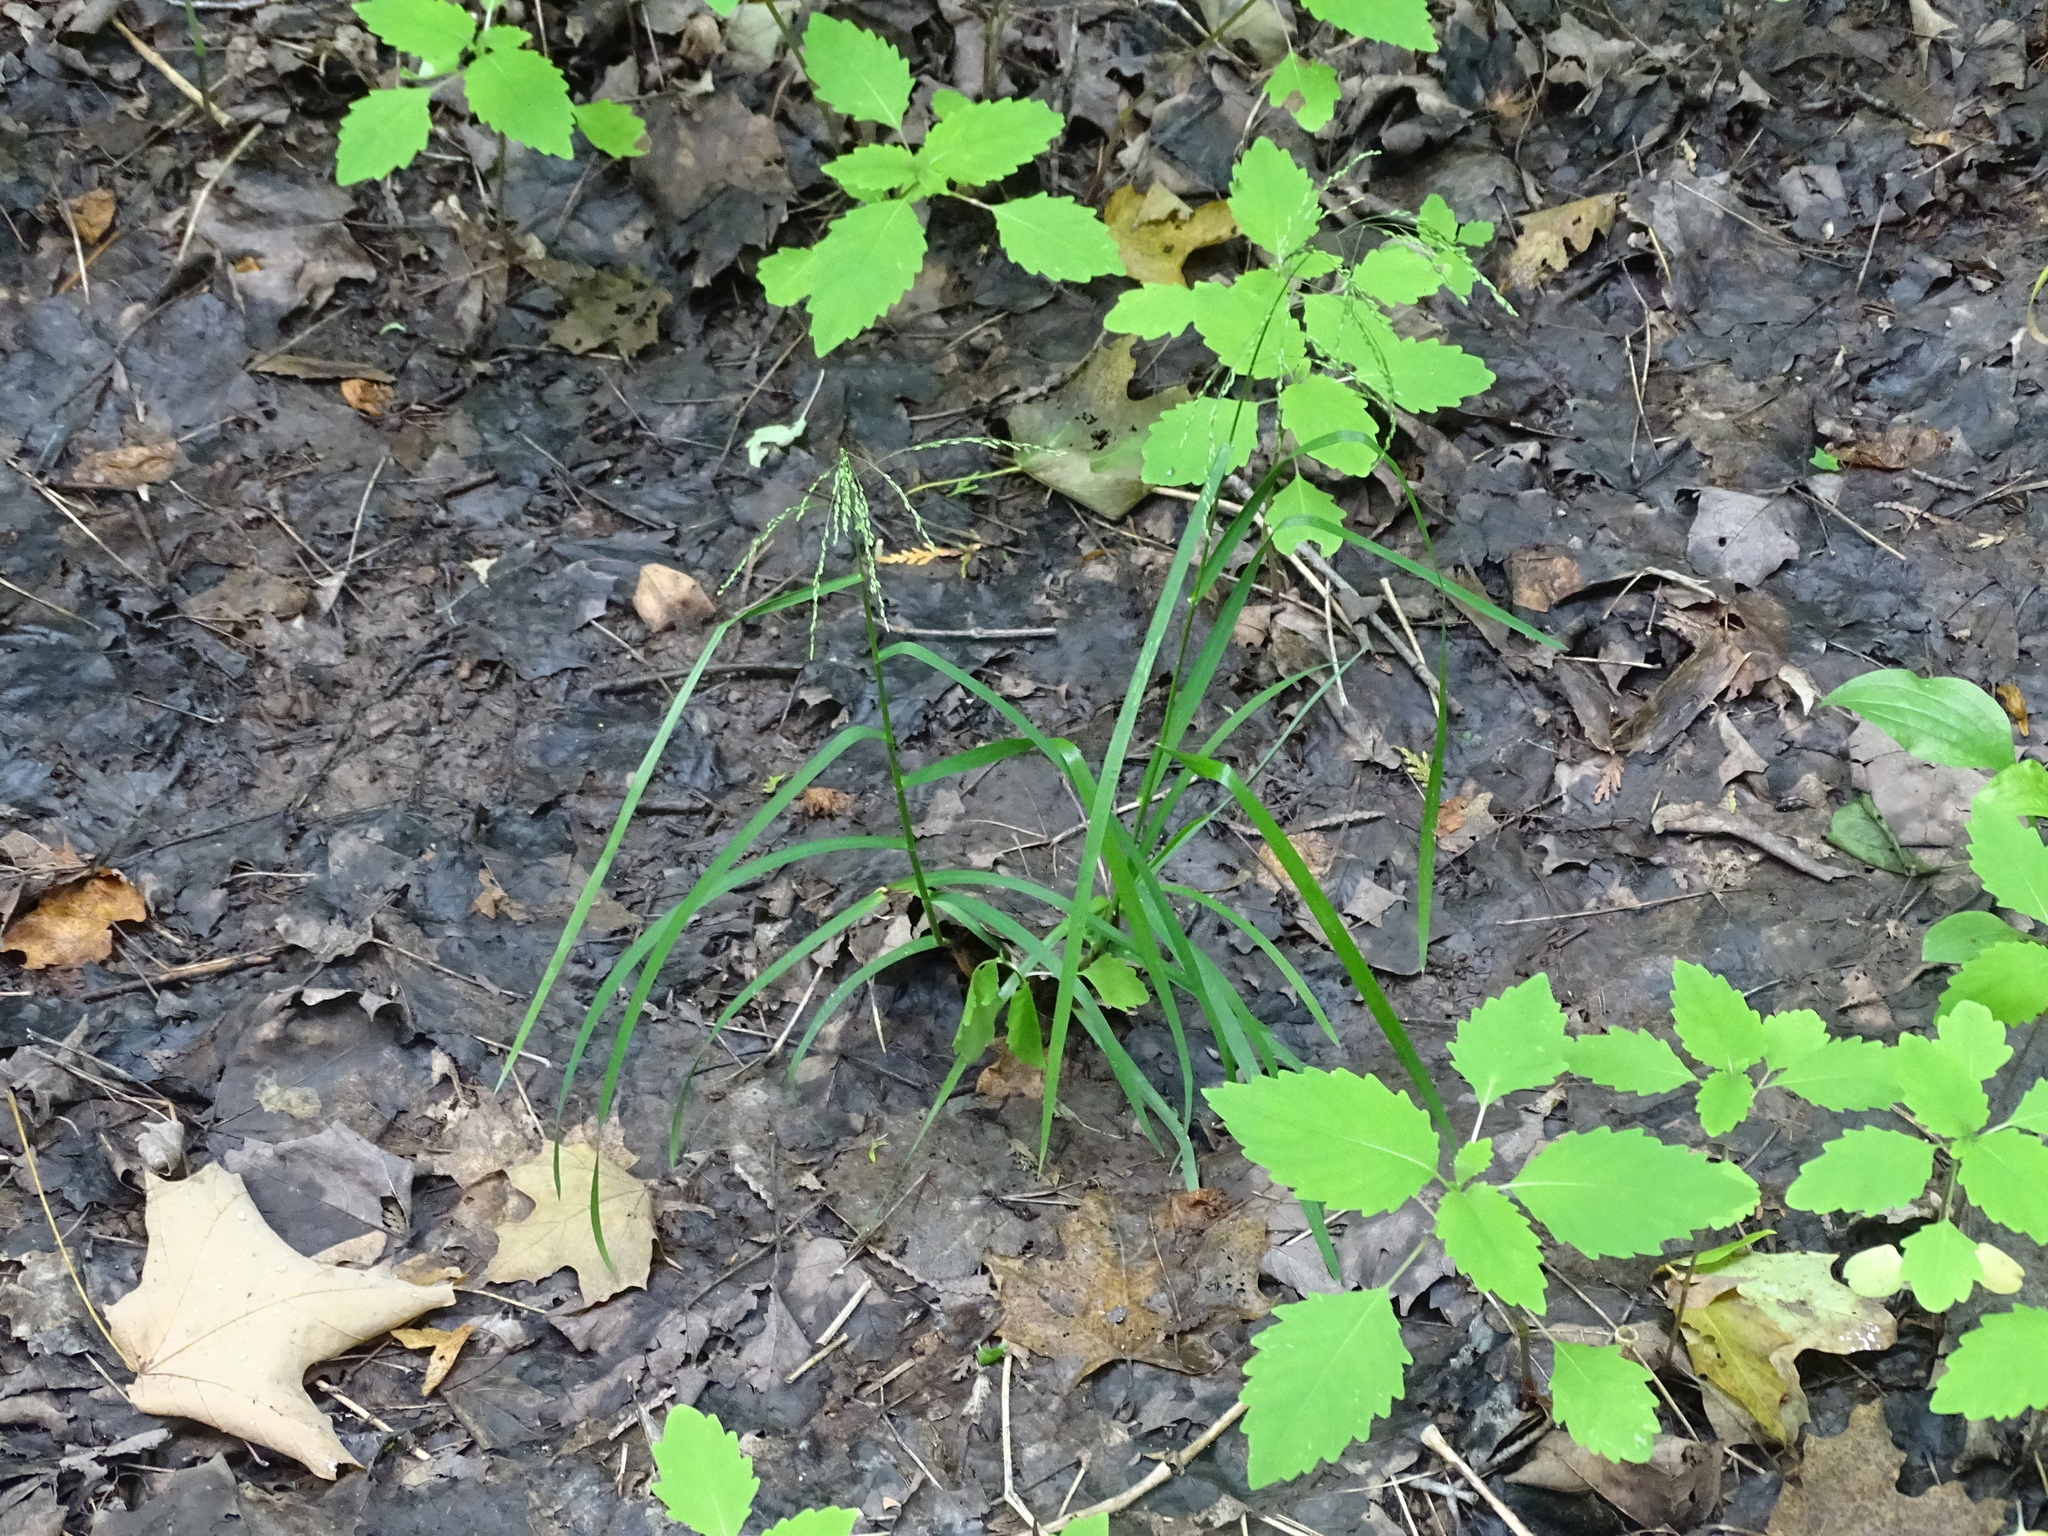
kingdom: Plantae
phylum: Tracheophyta
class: Liliopsida
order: Poales
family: Poaceae
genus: Glyceria
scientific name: Glyceria striata
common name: Fowl manna grass
